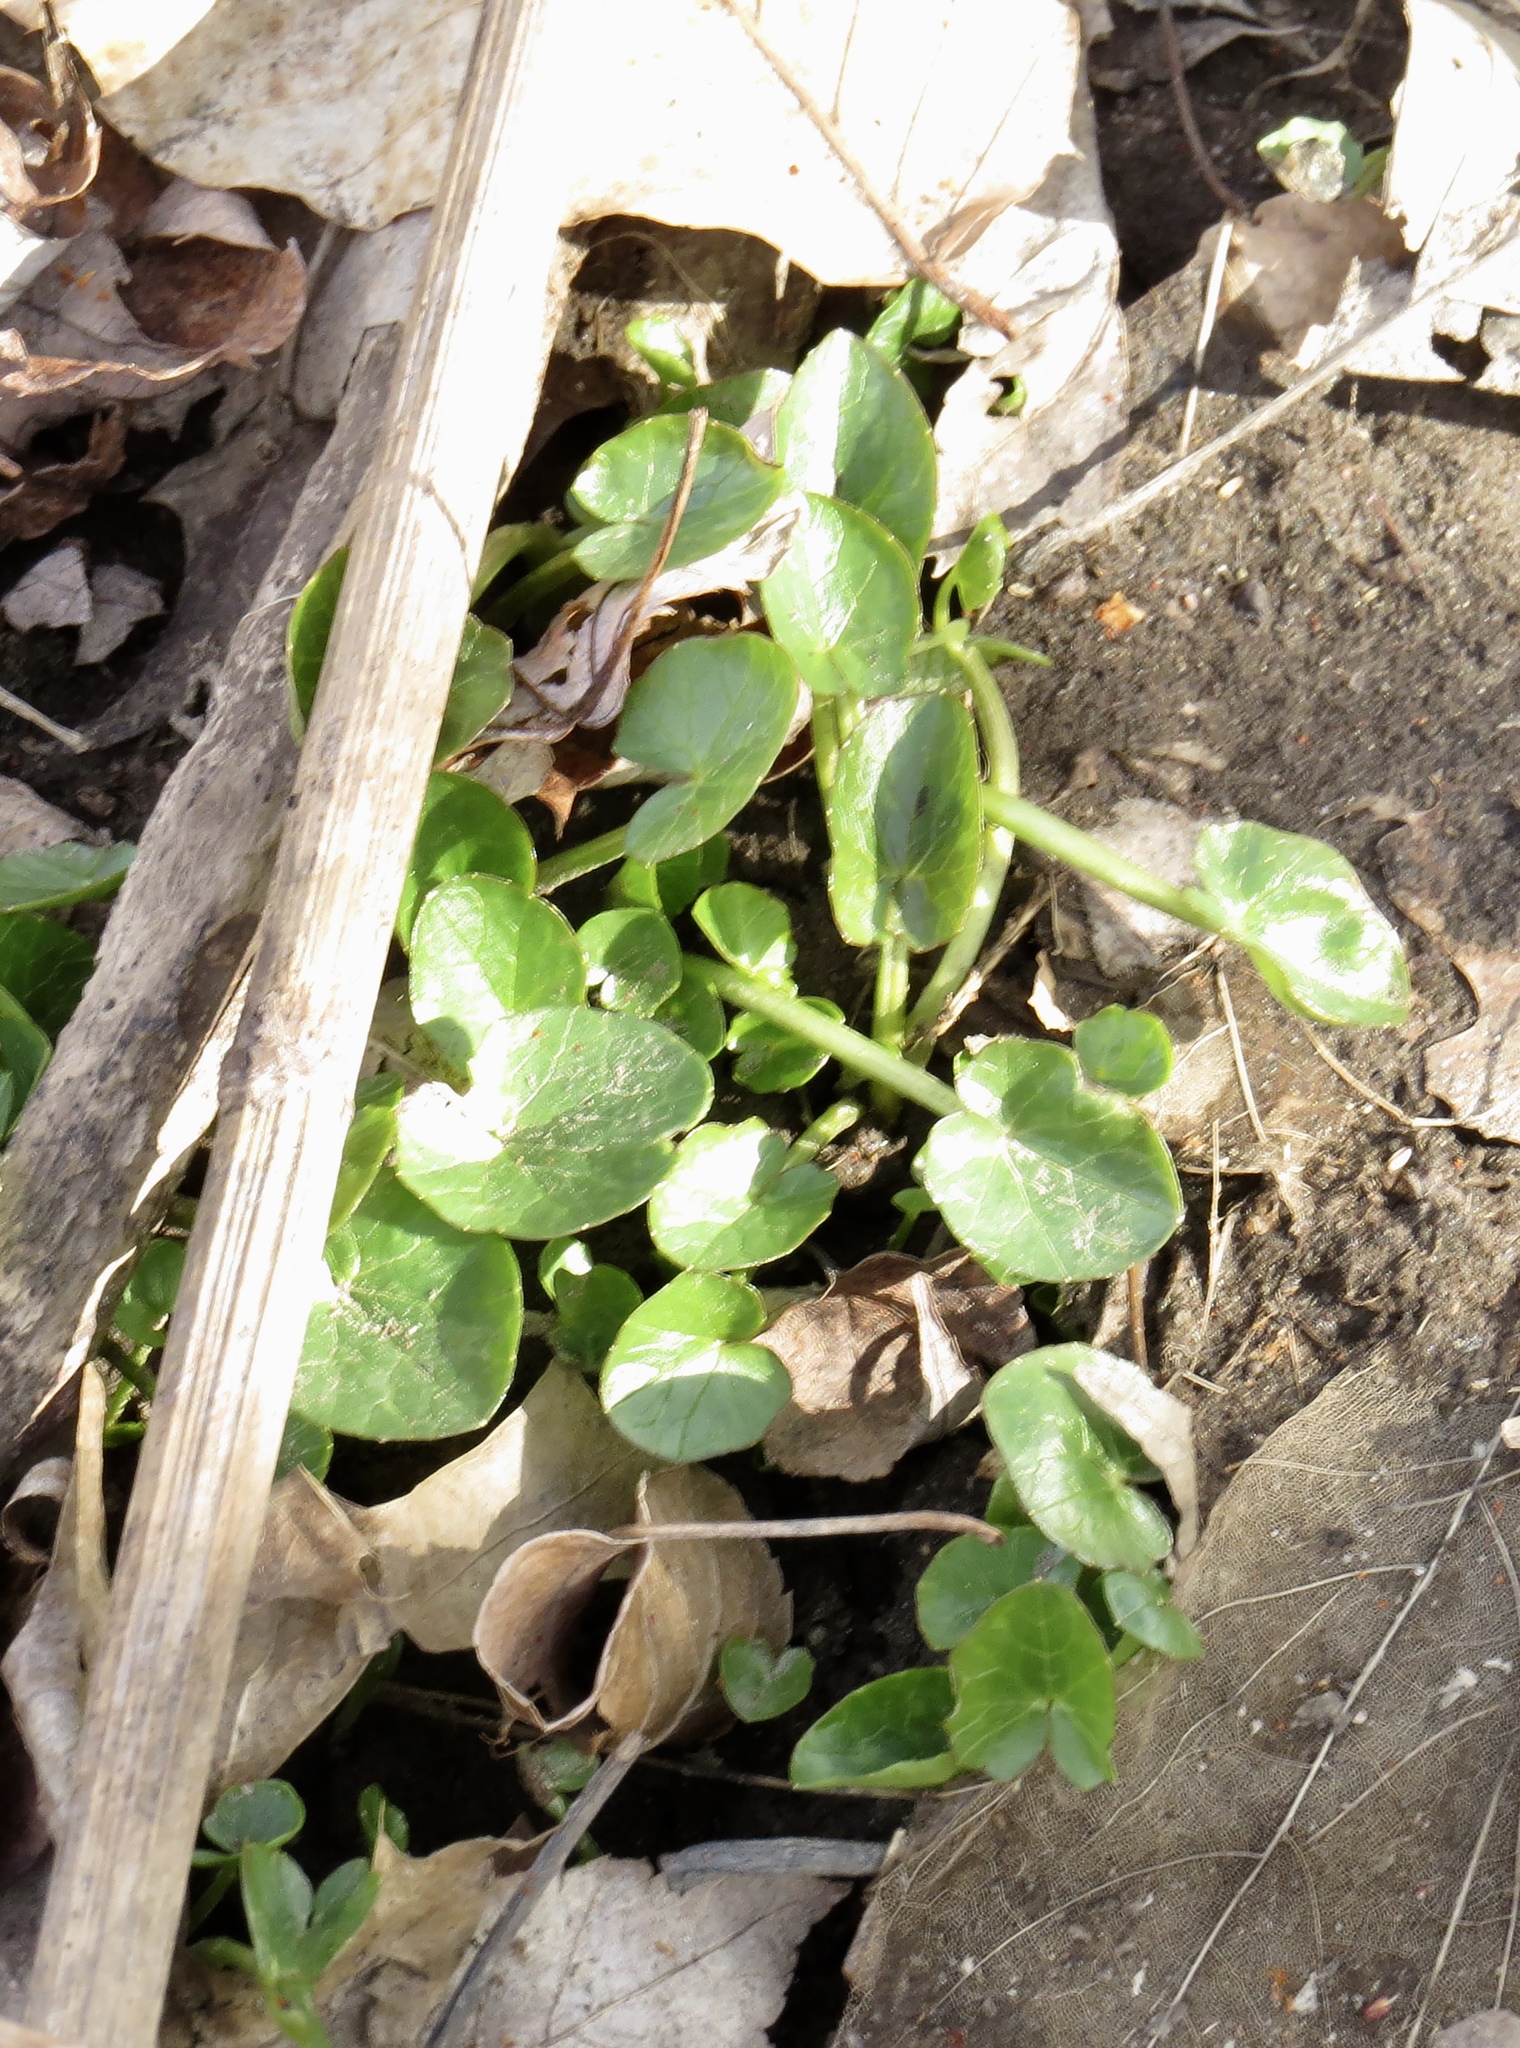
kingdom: Plantae
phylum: Tracheophyta
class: Magnoliopsida
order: Ranunculales
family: Ranunculaceae
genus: Ficaria
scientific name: Ficaria verna
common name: Lesser celandine
